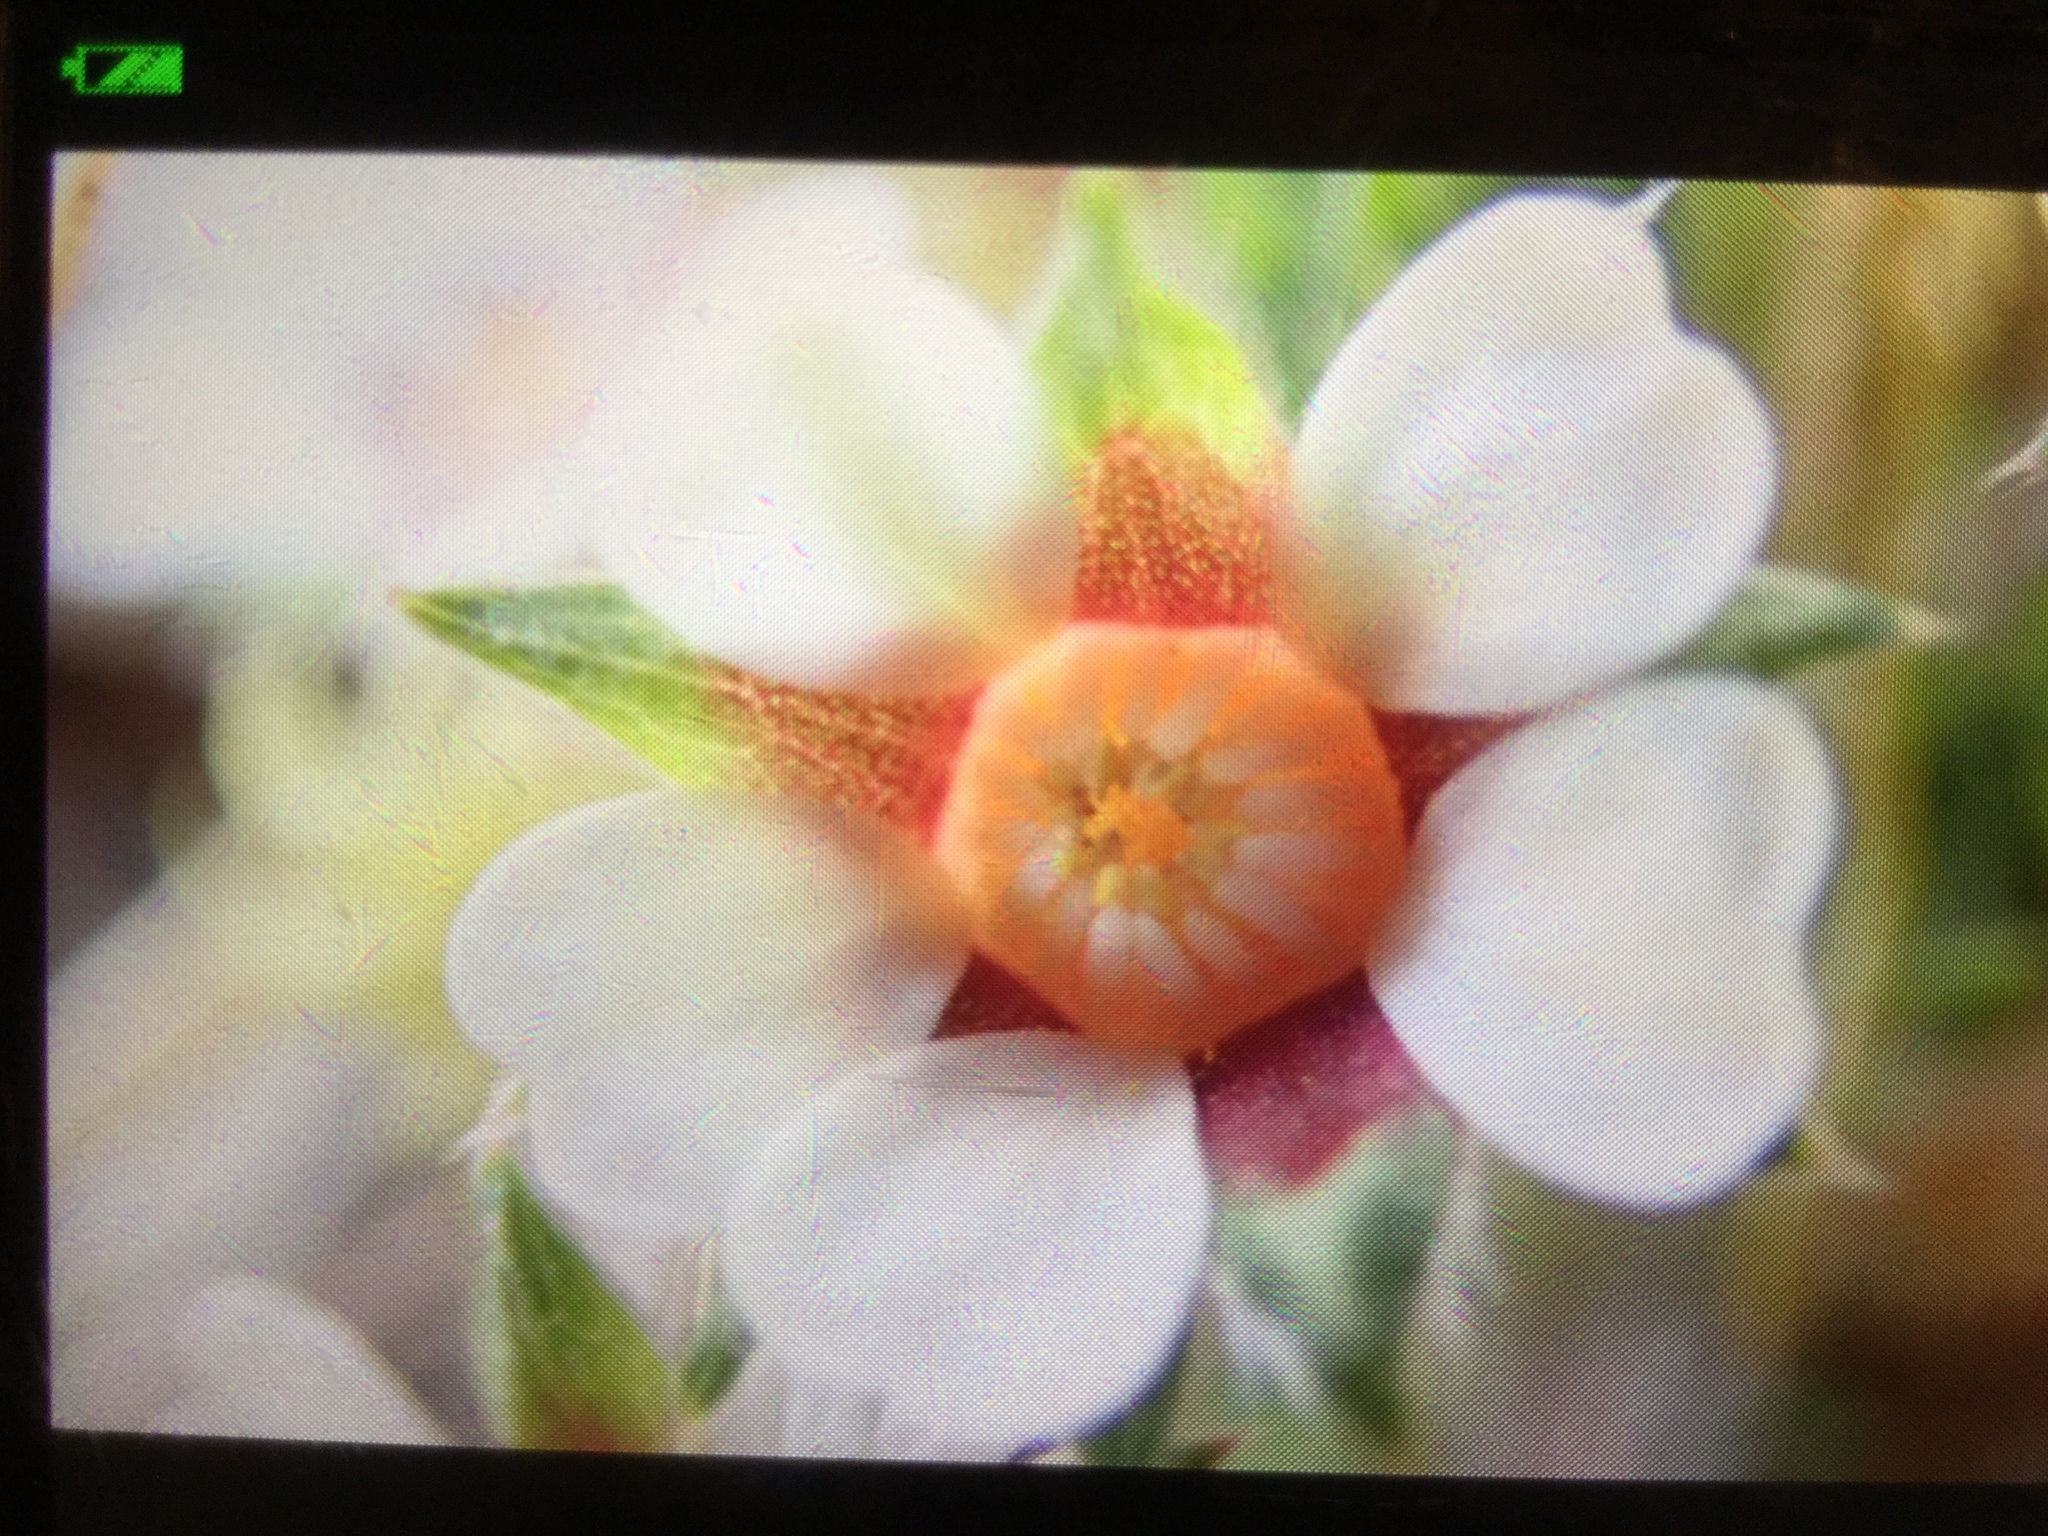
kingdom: Plantae
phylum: Tracheophyta
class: Magnoliopsida
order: Rosales
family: Rosaceae
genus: Potentilla
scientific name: Potentilla micrantha
